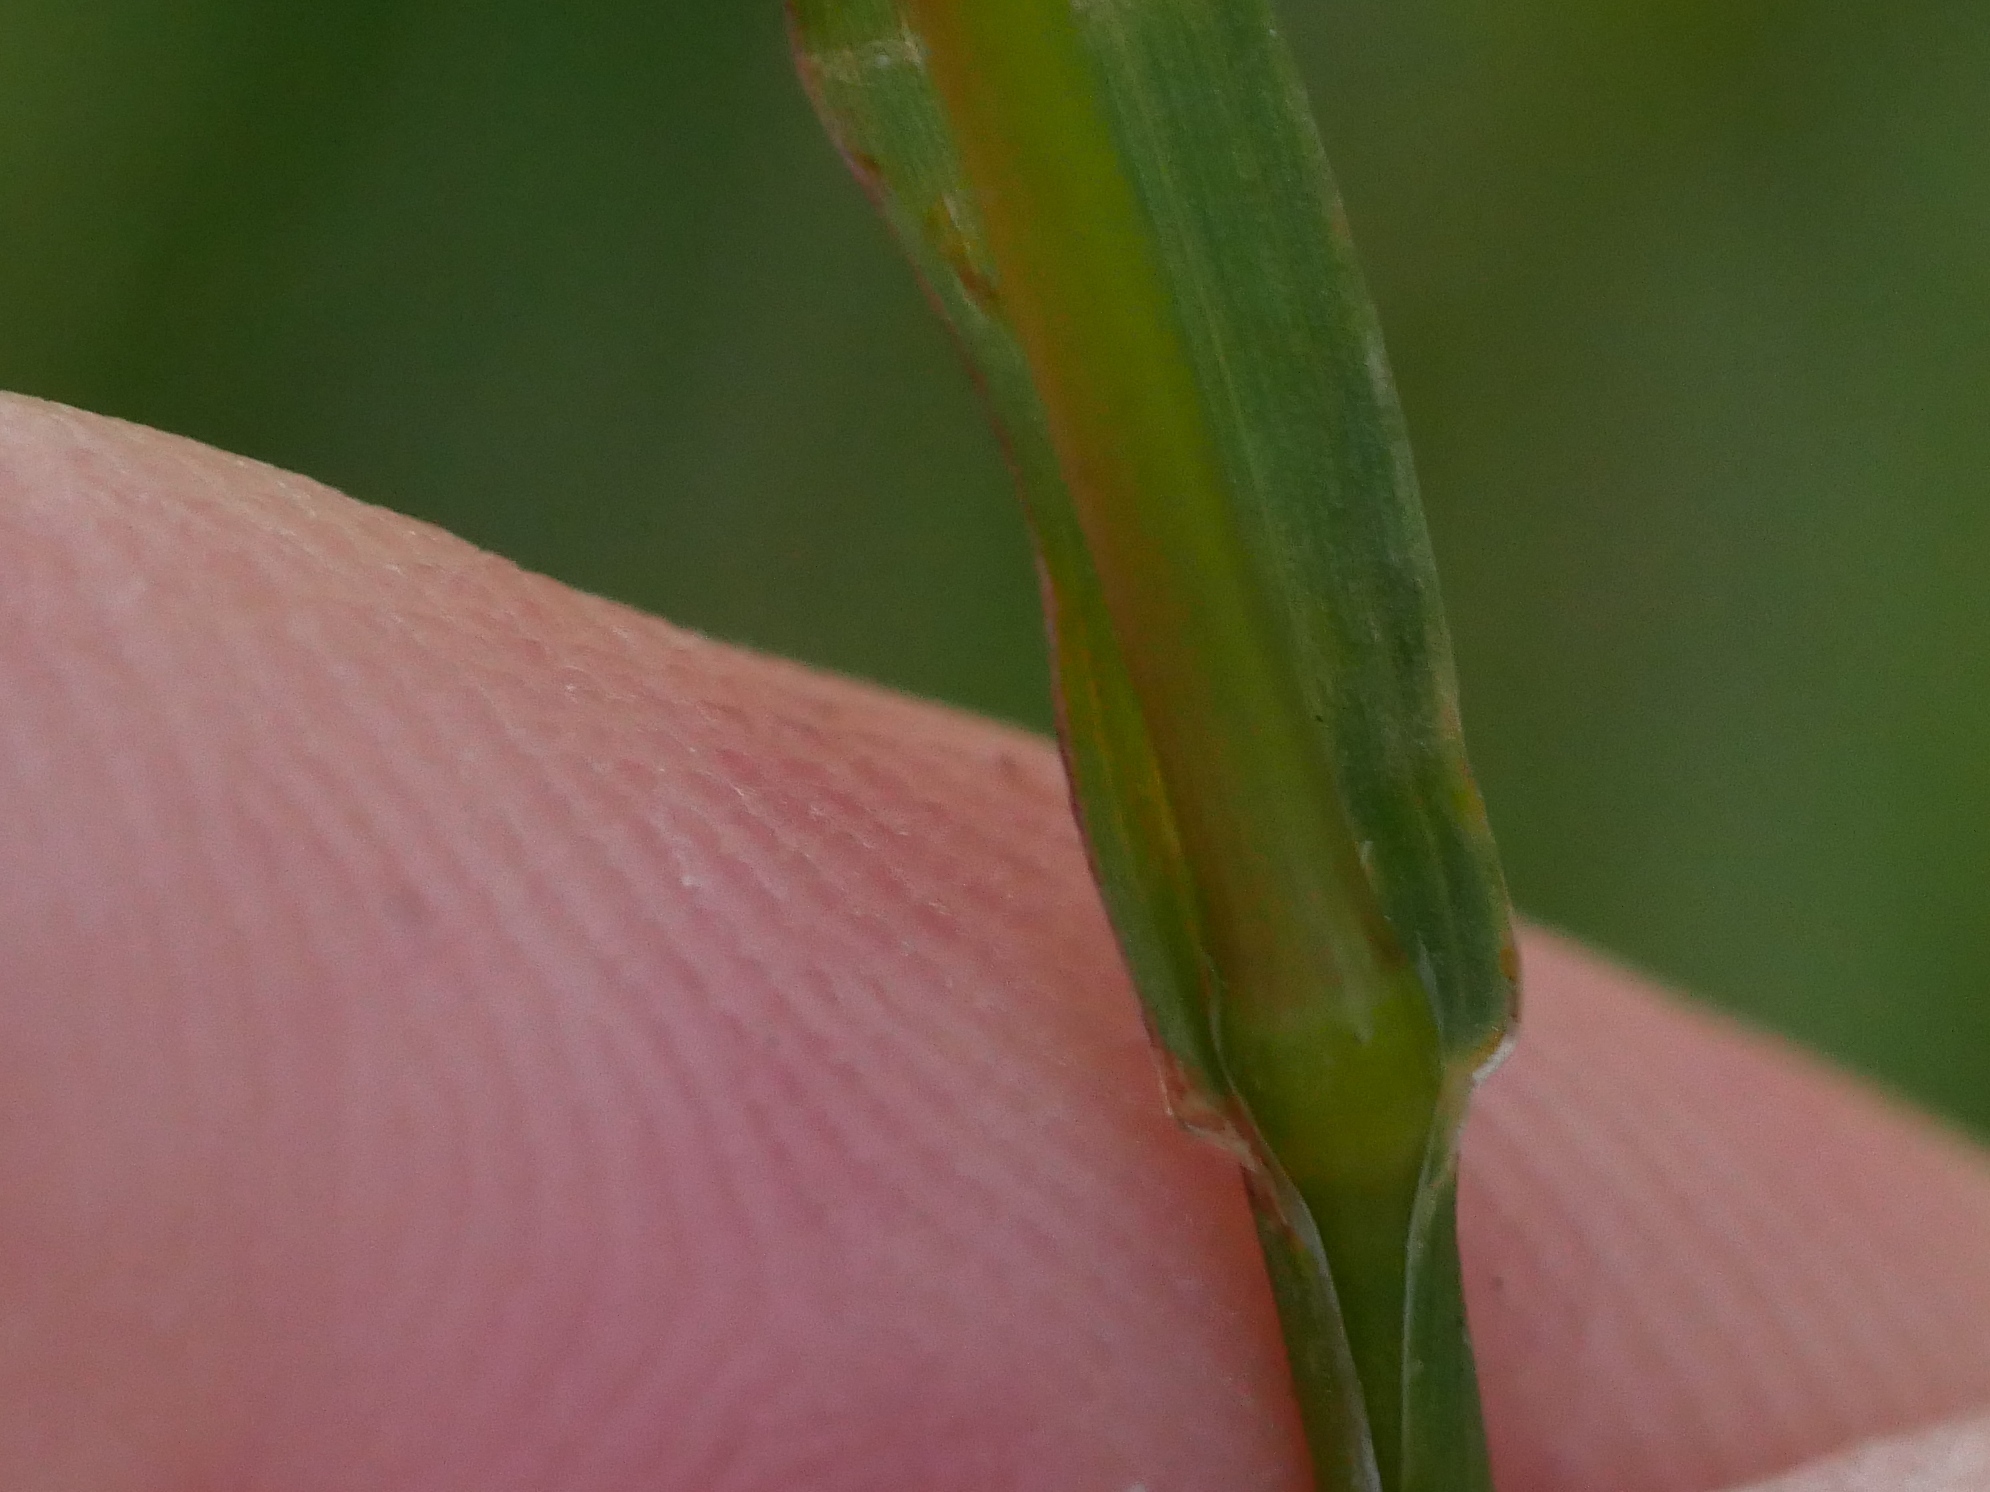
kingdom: Plantae
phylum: Tracheophyta
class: Liliopsida
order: Poales
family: Poaceae
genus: Poa
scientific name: Poa bulbosa
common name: Bulbous bluegrass
